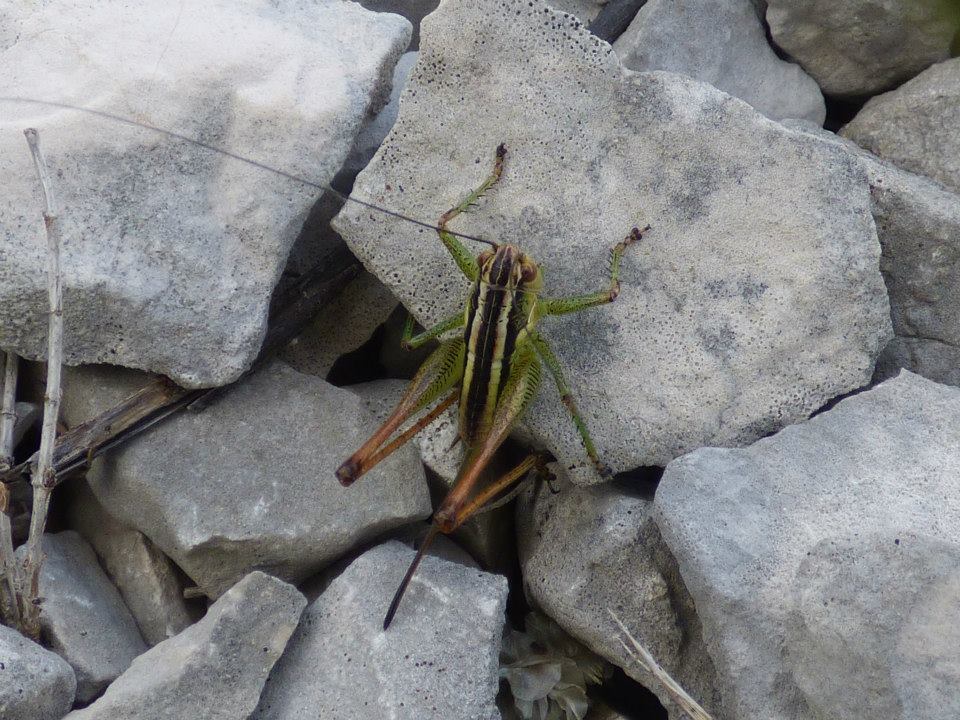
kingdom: Animalia
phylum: Arthropoda
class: Insecta
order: Orthoptera
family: Tettigoniidae
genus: Pachytrachis
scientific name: Pachytrachis striolatus
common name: Striated bush-cricket
